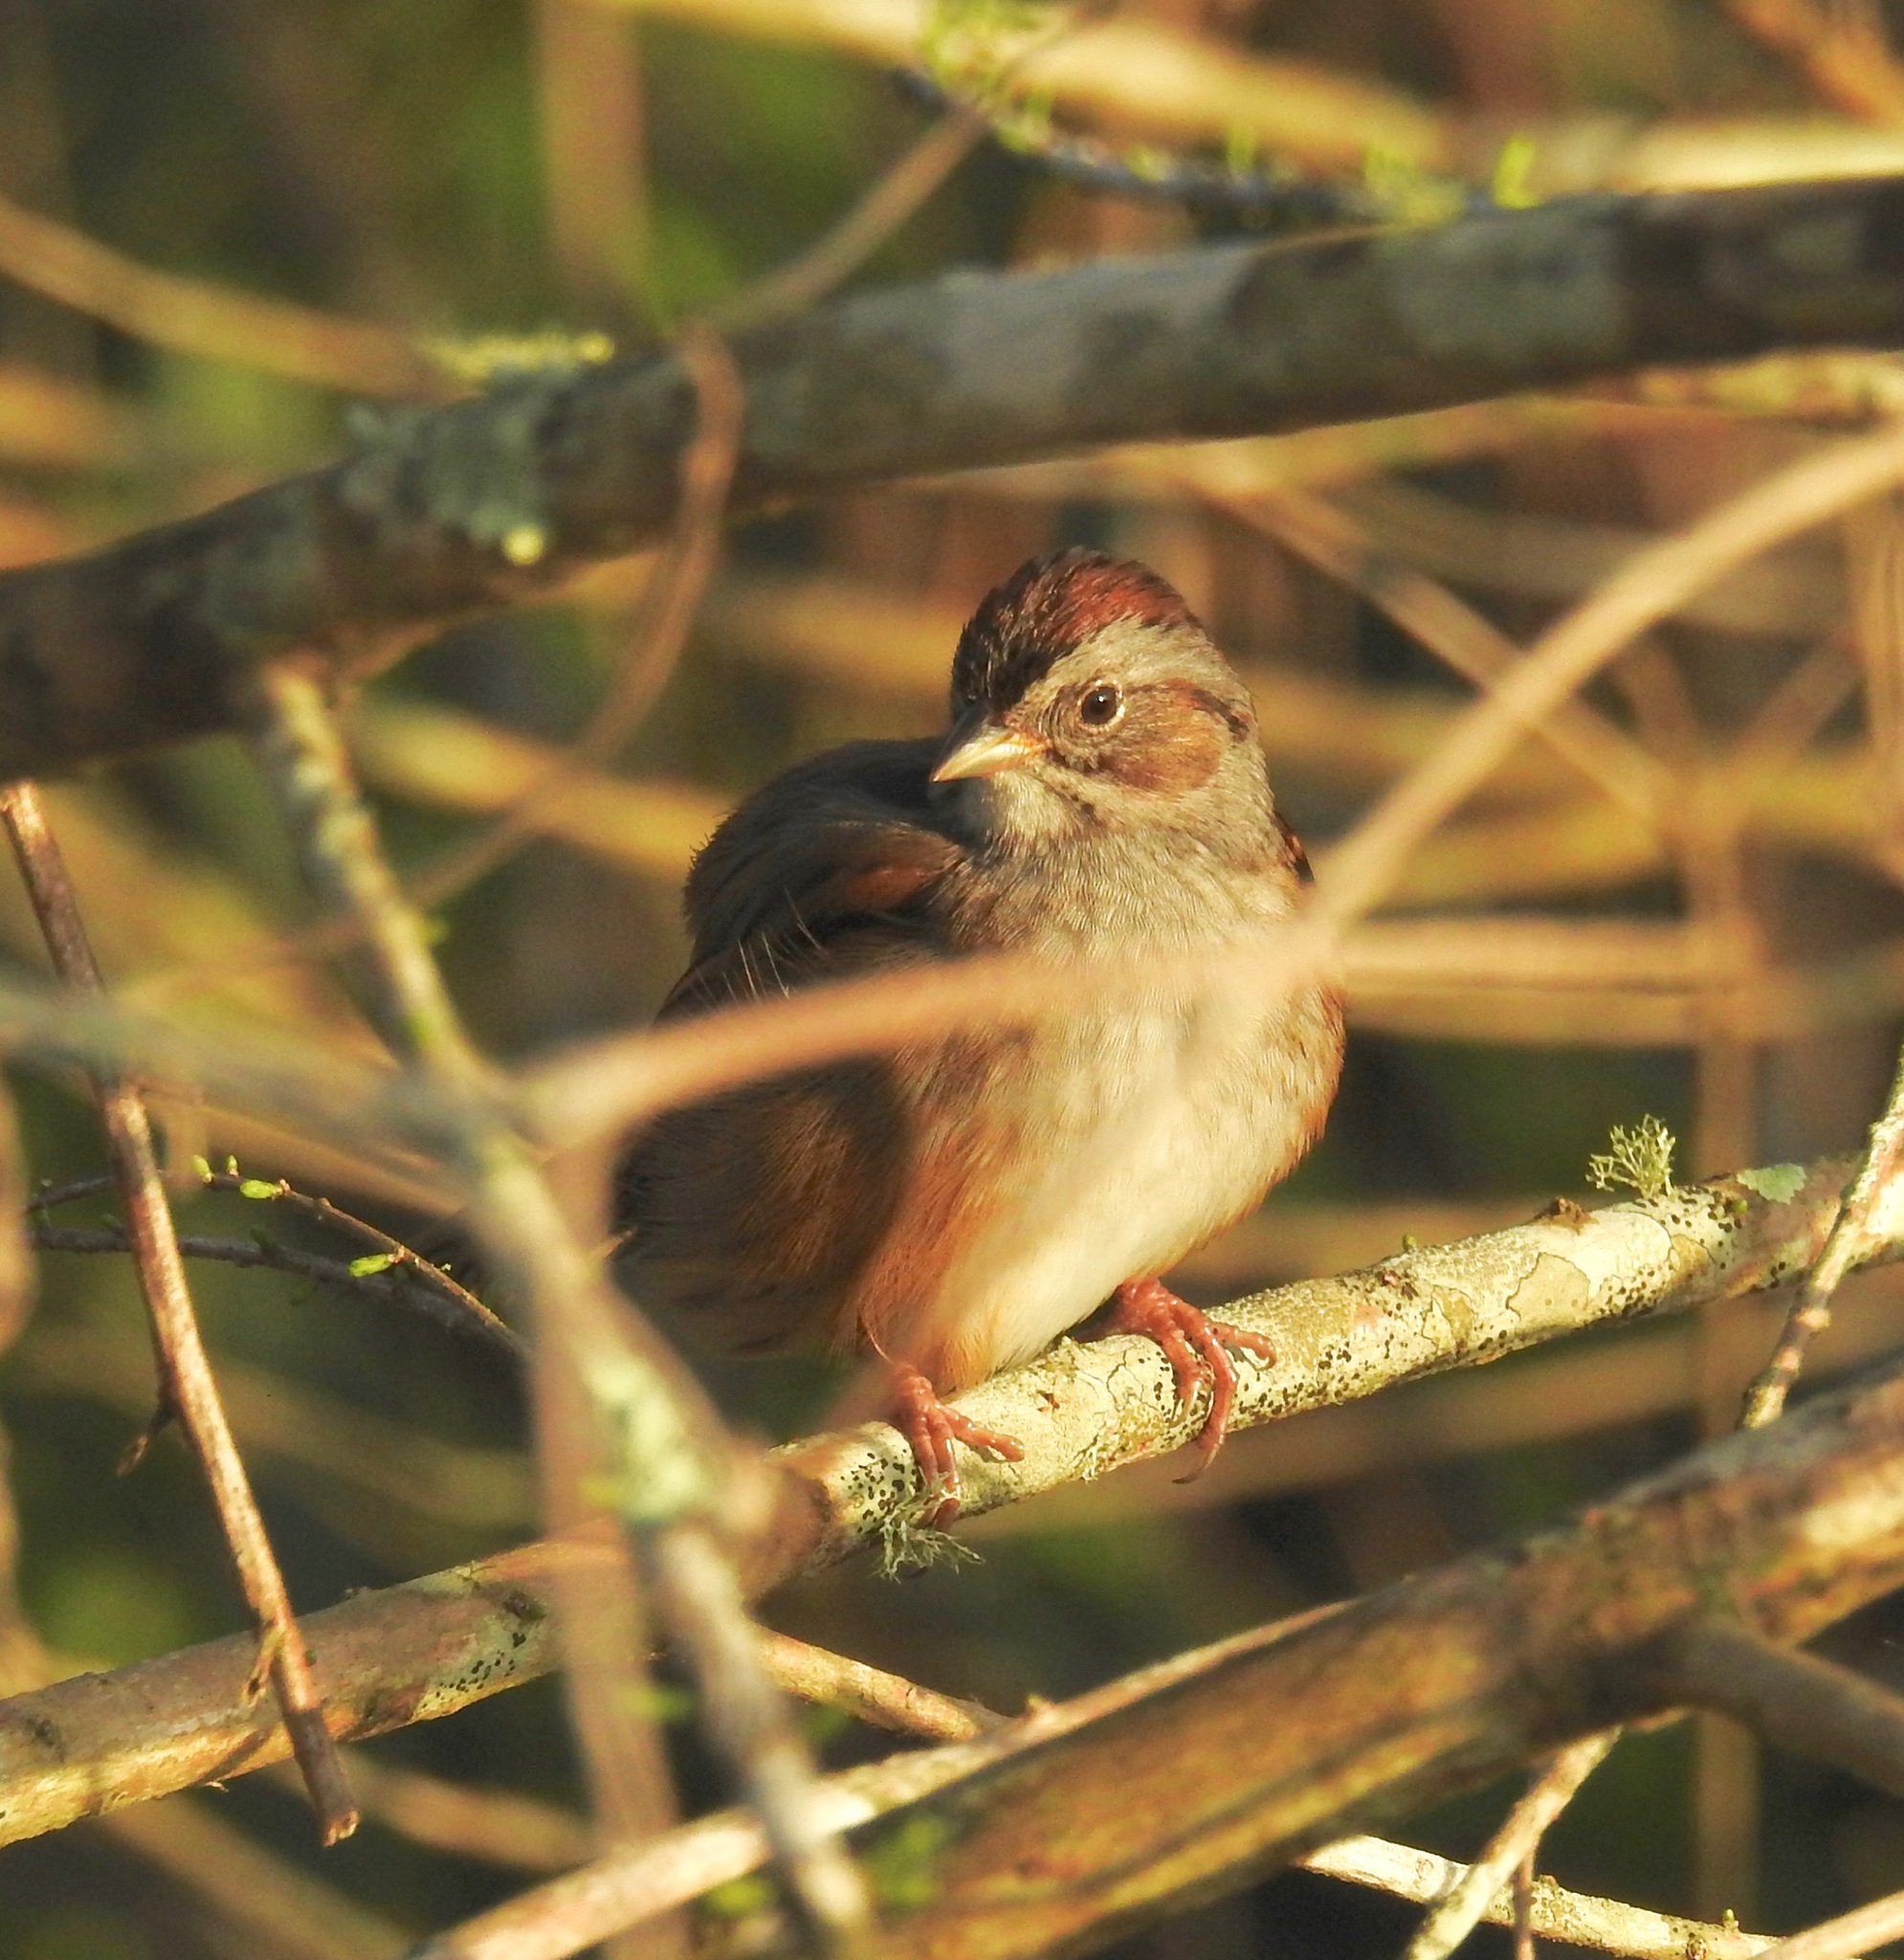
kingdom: Animalia
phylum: Chordata
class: Aves
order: Passeriformes
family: Passerellidae
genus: Melospiza
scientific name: Melospiza georgiana
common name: Swamp sparrow
